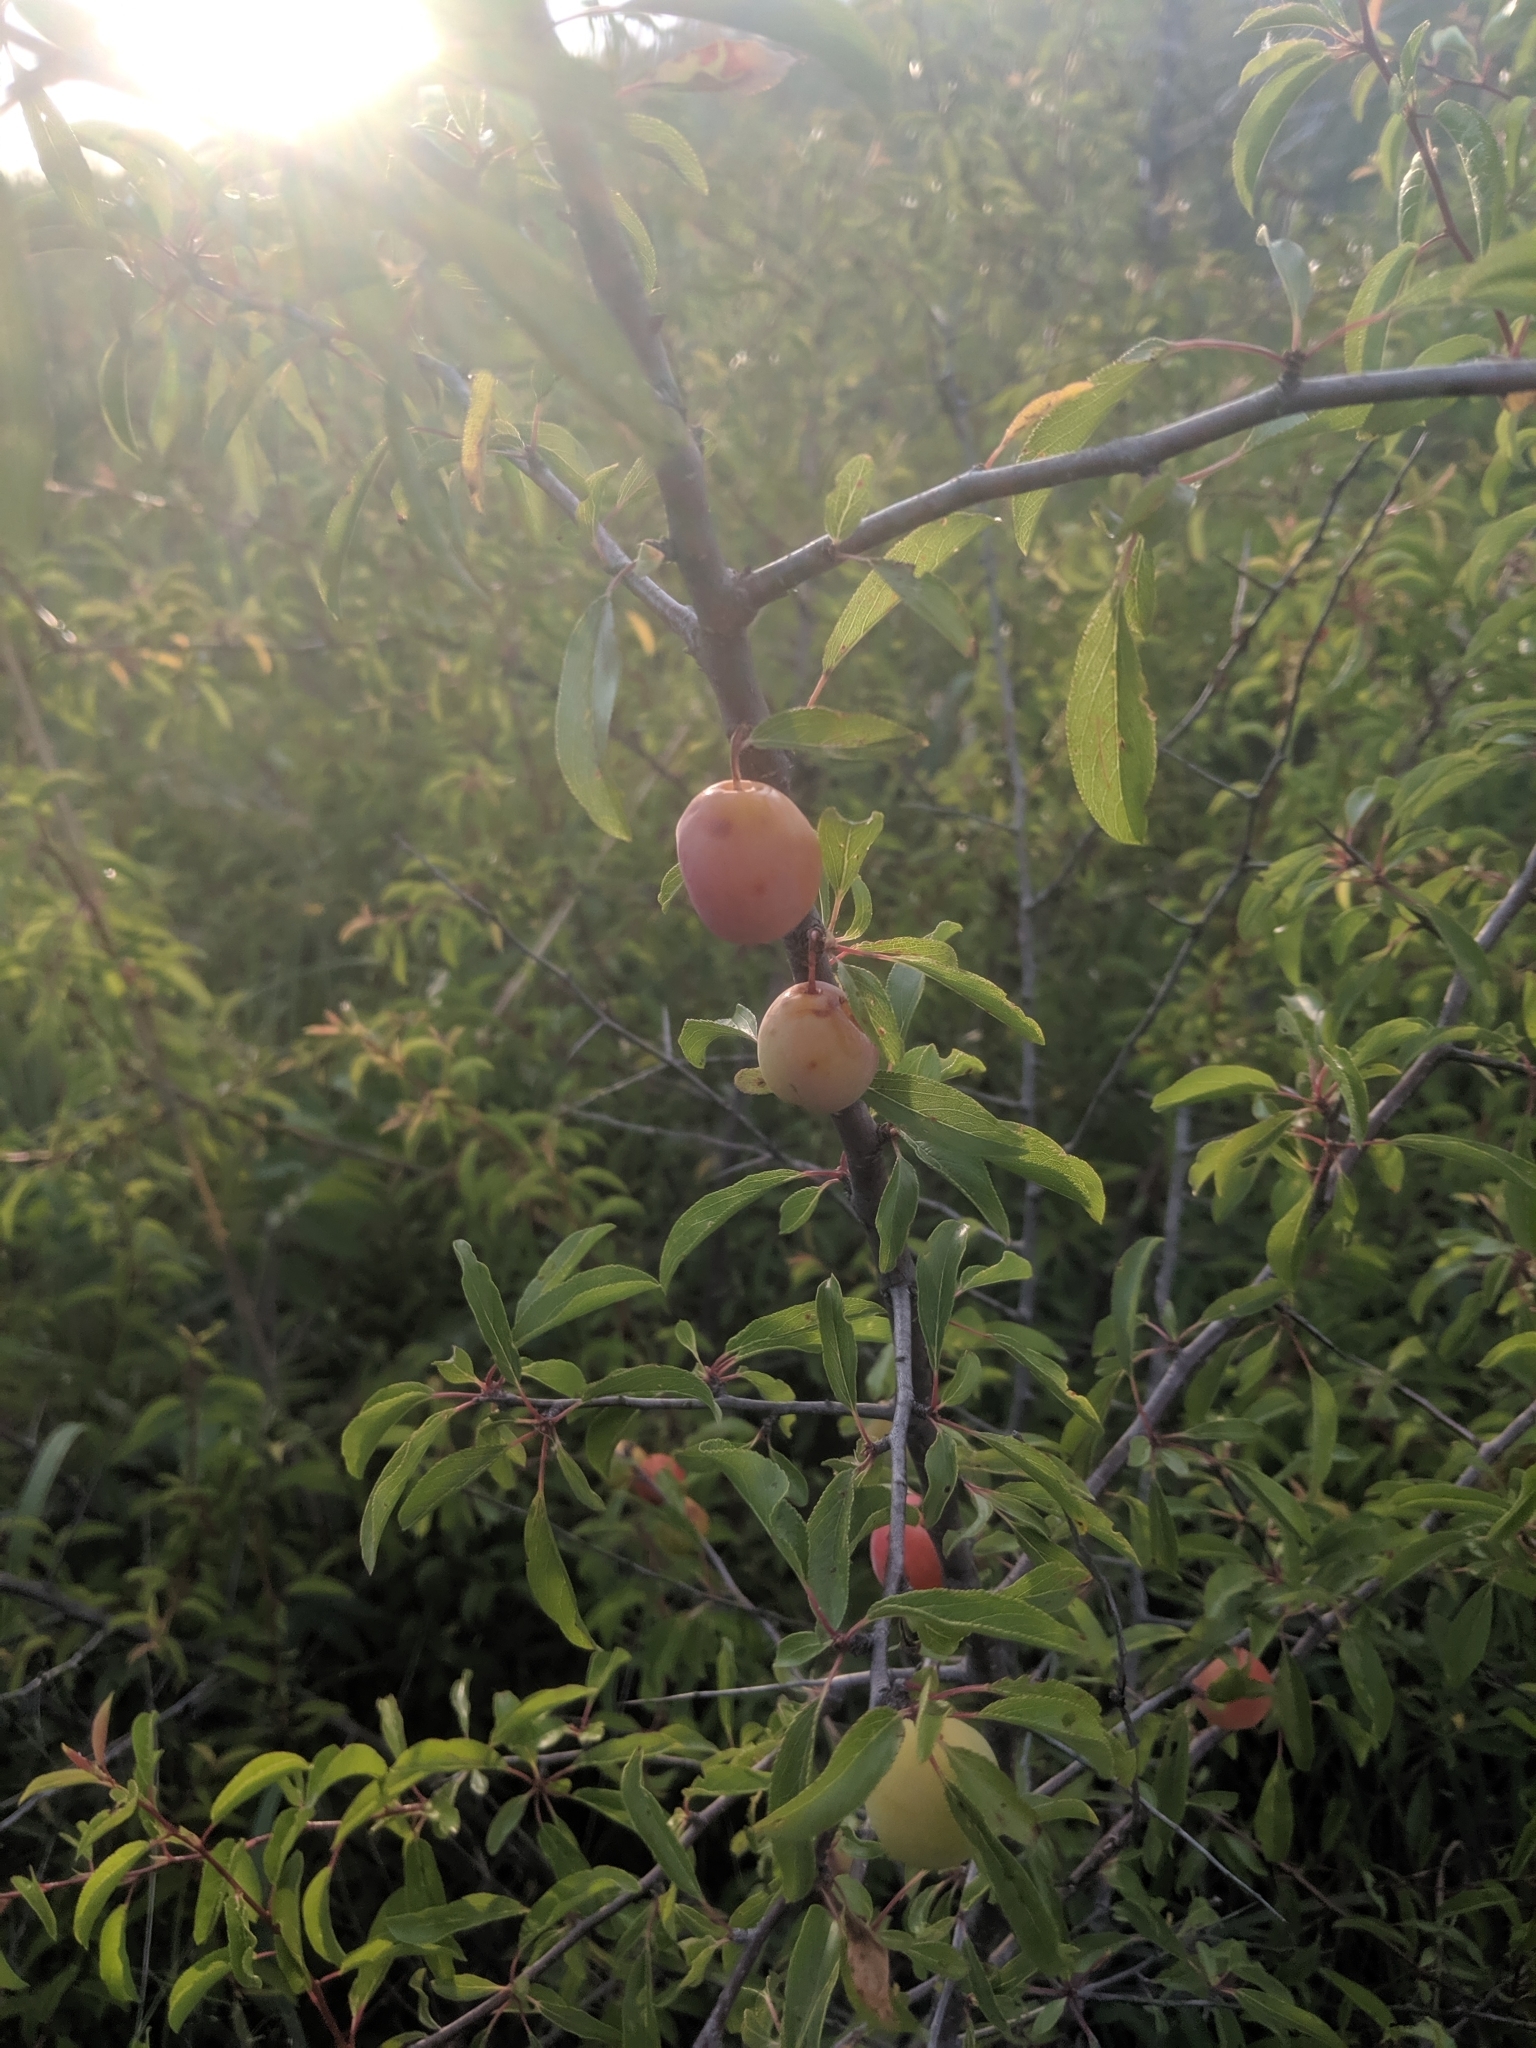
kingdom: Plantae
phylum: Tracheophyta
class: Magnoliopsida
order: Rosales
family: Rosaceae
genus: Prunus
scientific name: Prunus angustifolia
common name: Cherokee plum
